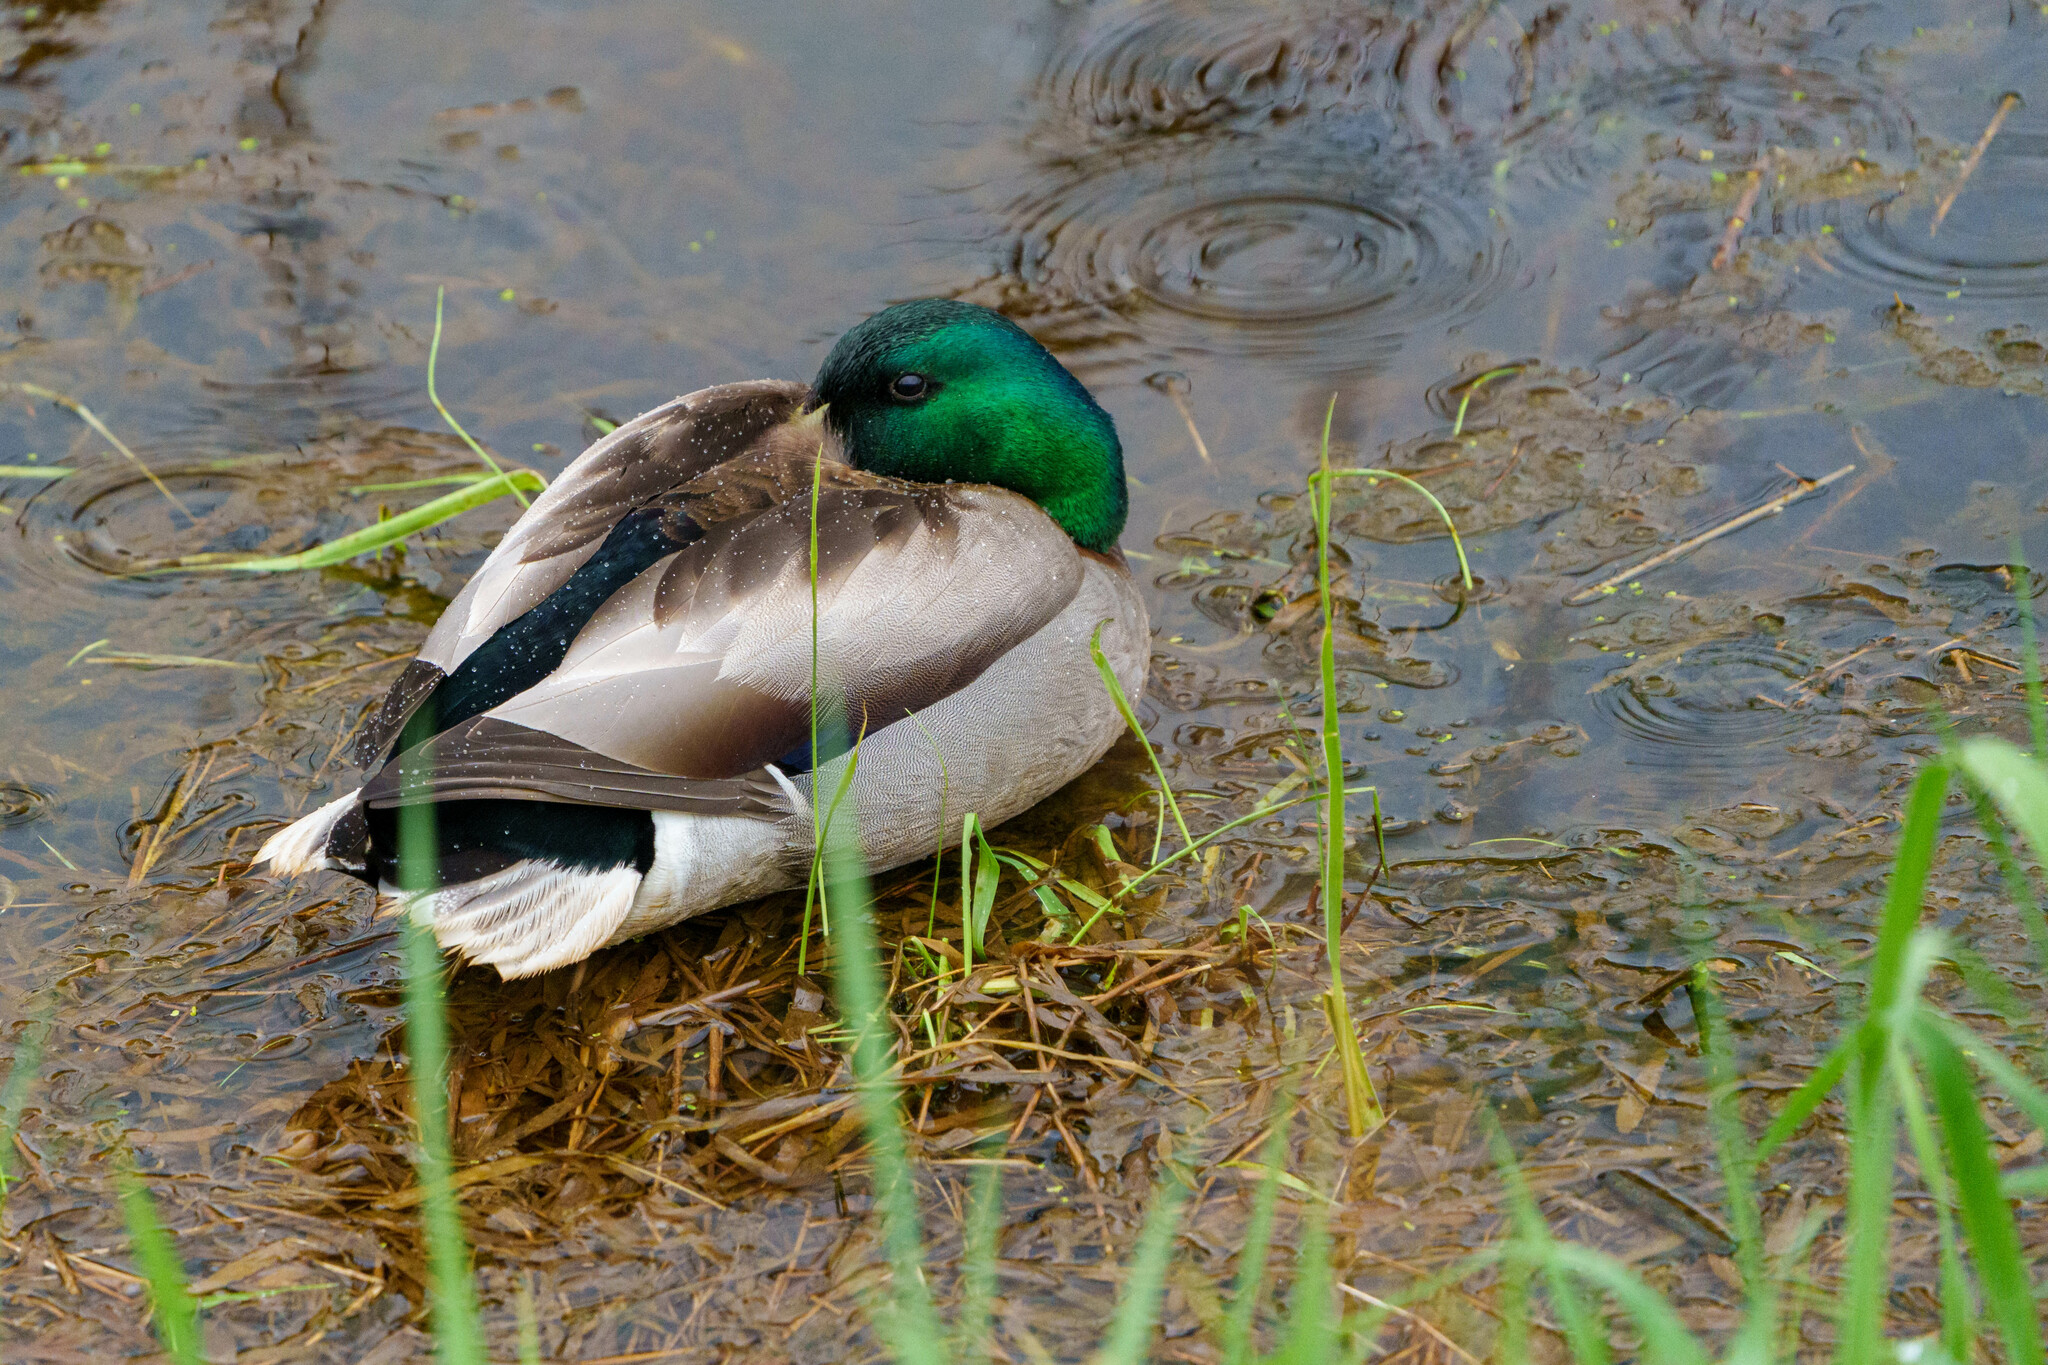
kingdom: Animalia
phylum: Chordata
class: Aves
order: Anseriformes
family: Anatidae
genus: Anas
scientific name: Anas platyrhynchos
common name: Mallard
